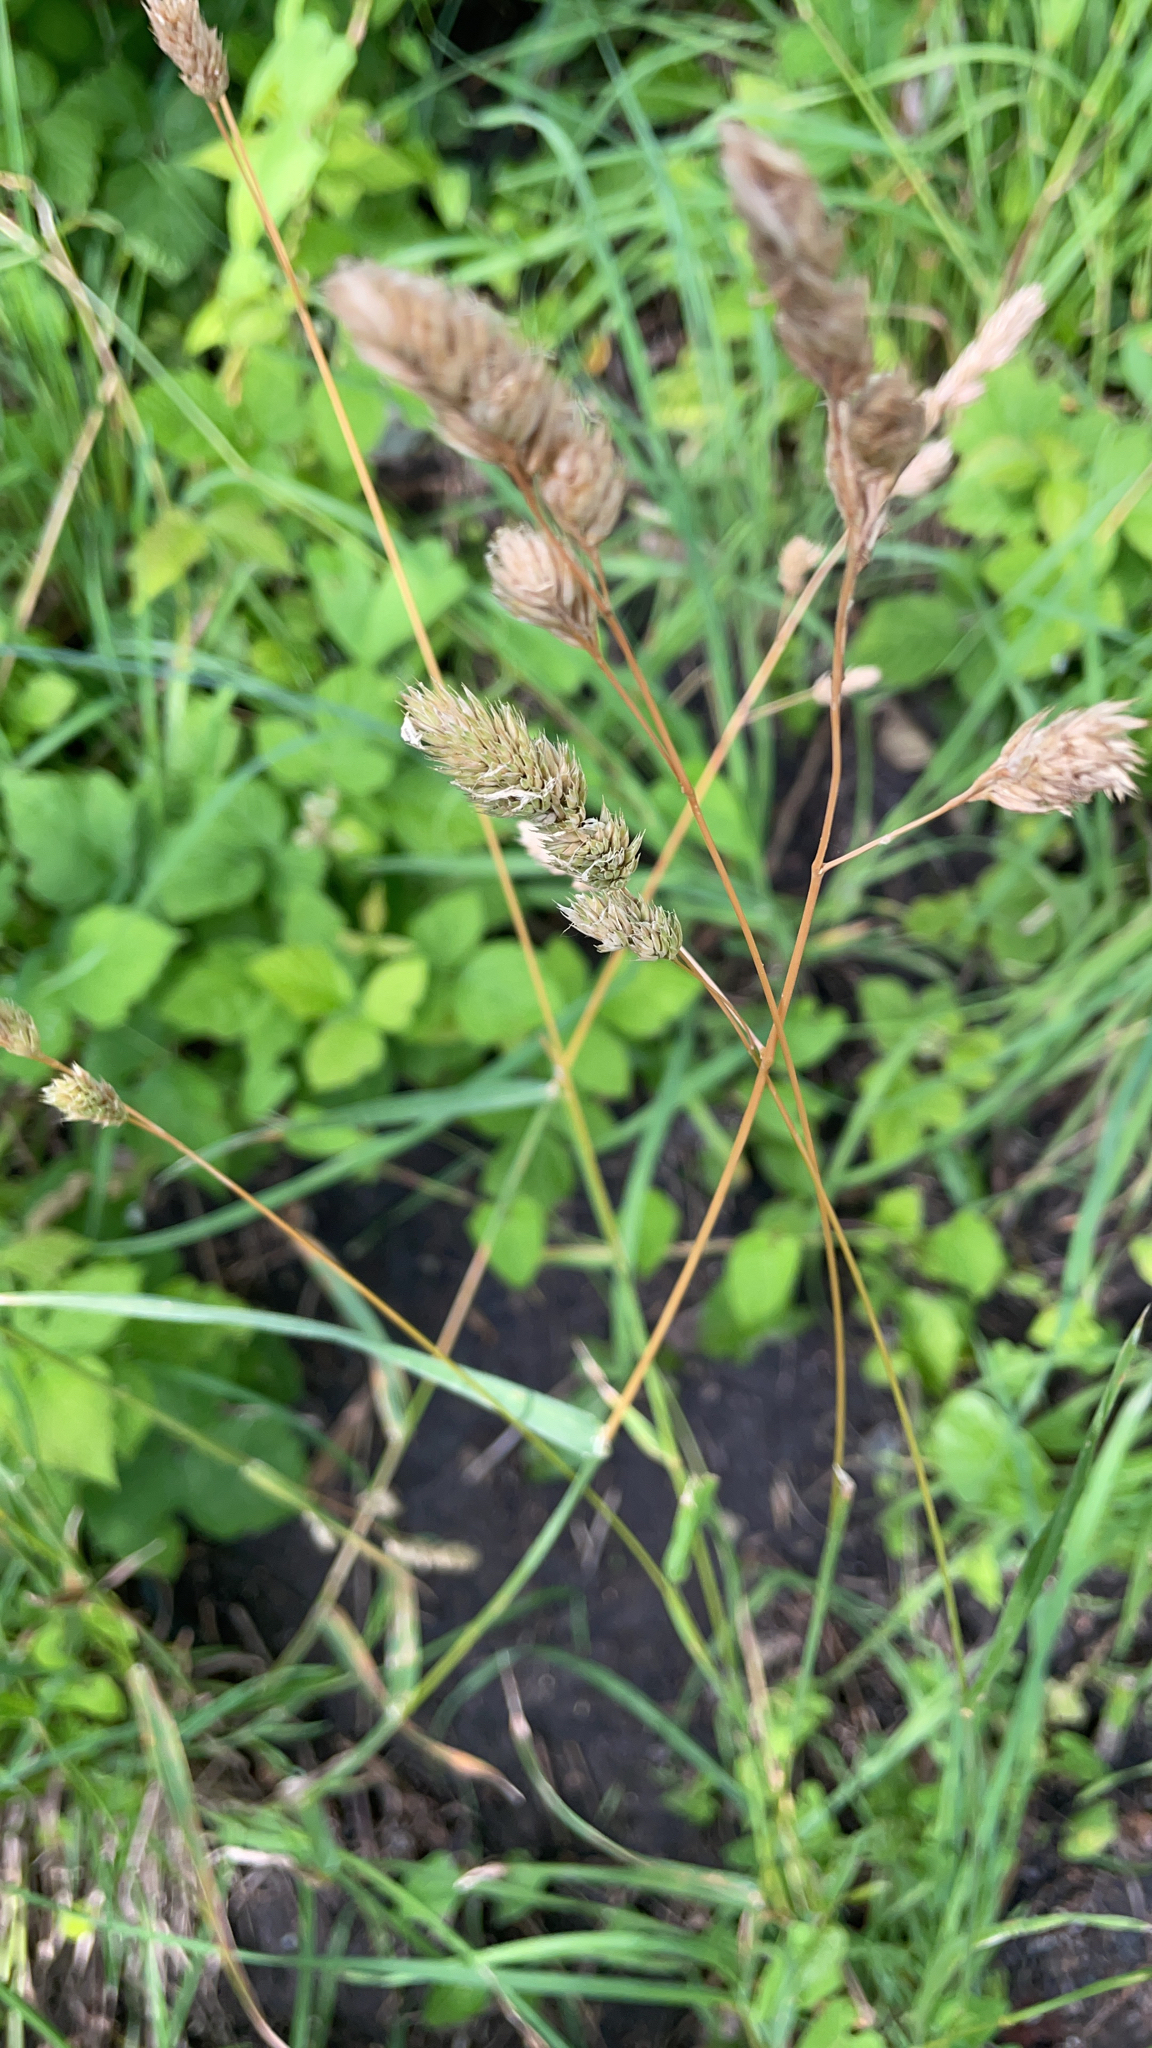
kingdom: Plantae
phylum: Tracheophyta
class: Liliopsida
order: Poales
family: Poaceae
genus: Dactylis
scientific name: Dactylis glomerata
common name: Orchardgrass
